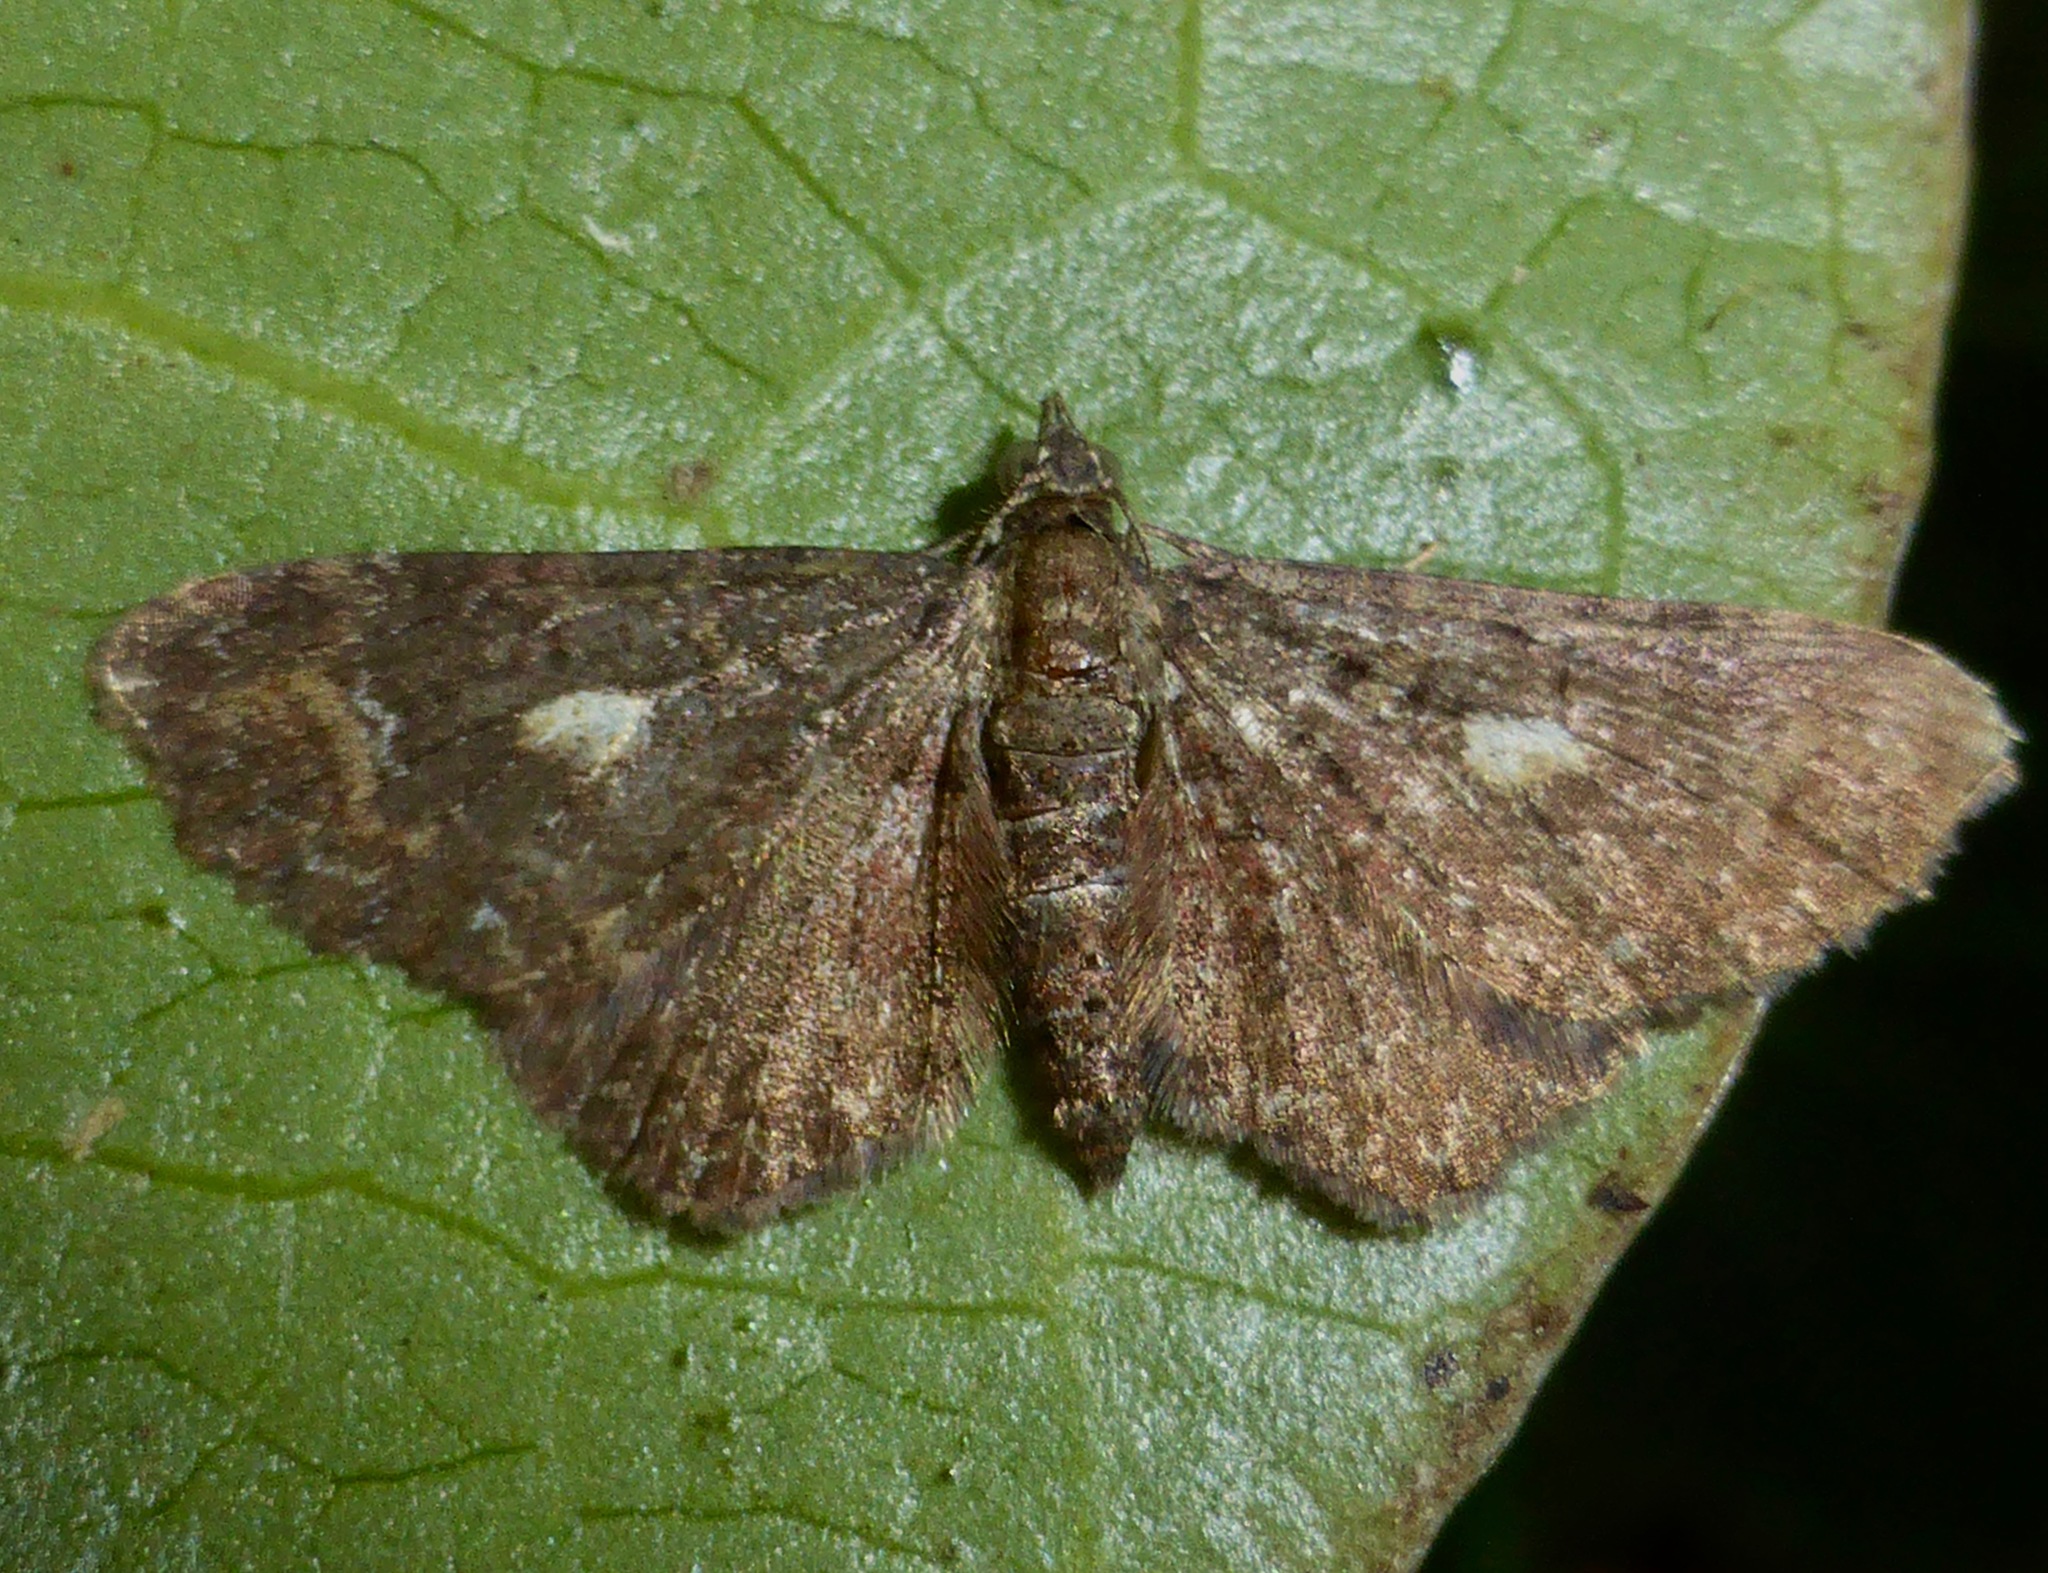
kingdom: Animalia
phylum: Arthropoda
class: Insecta
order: Lepidoptera
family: Geometridae
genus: Pasiphila
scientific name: Pasiphila lunata
